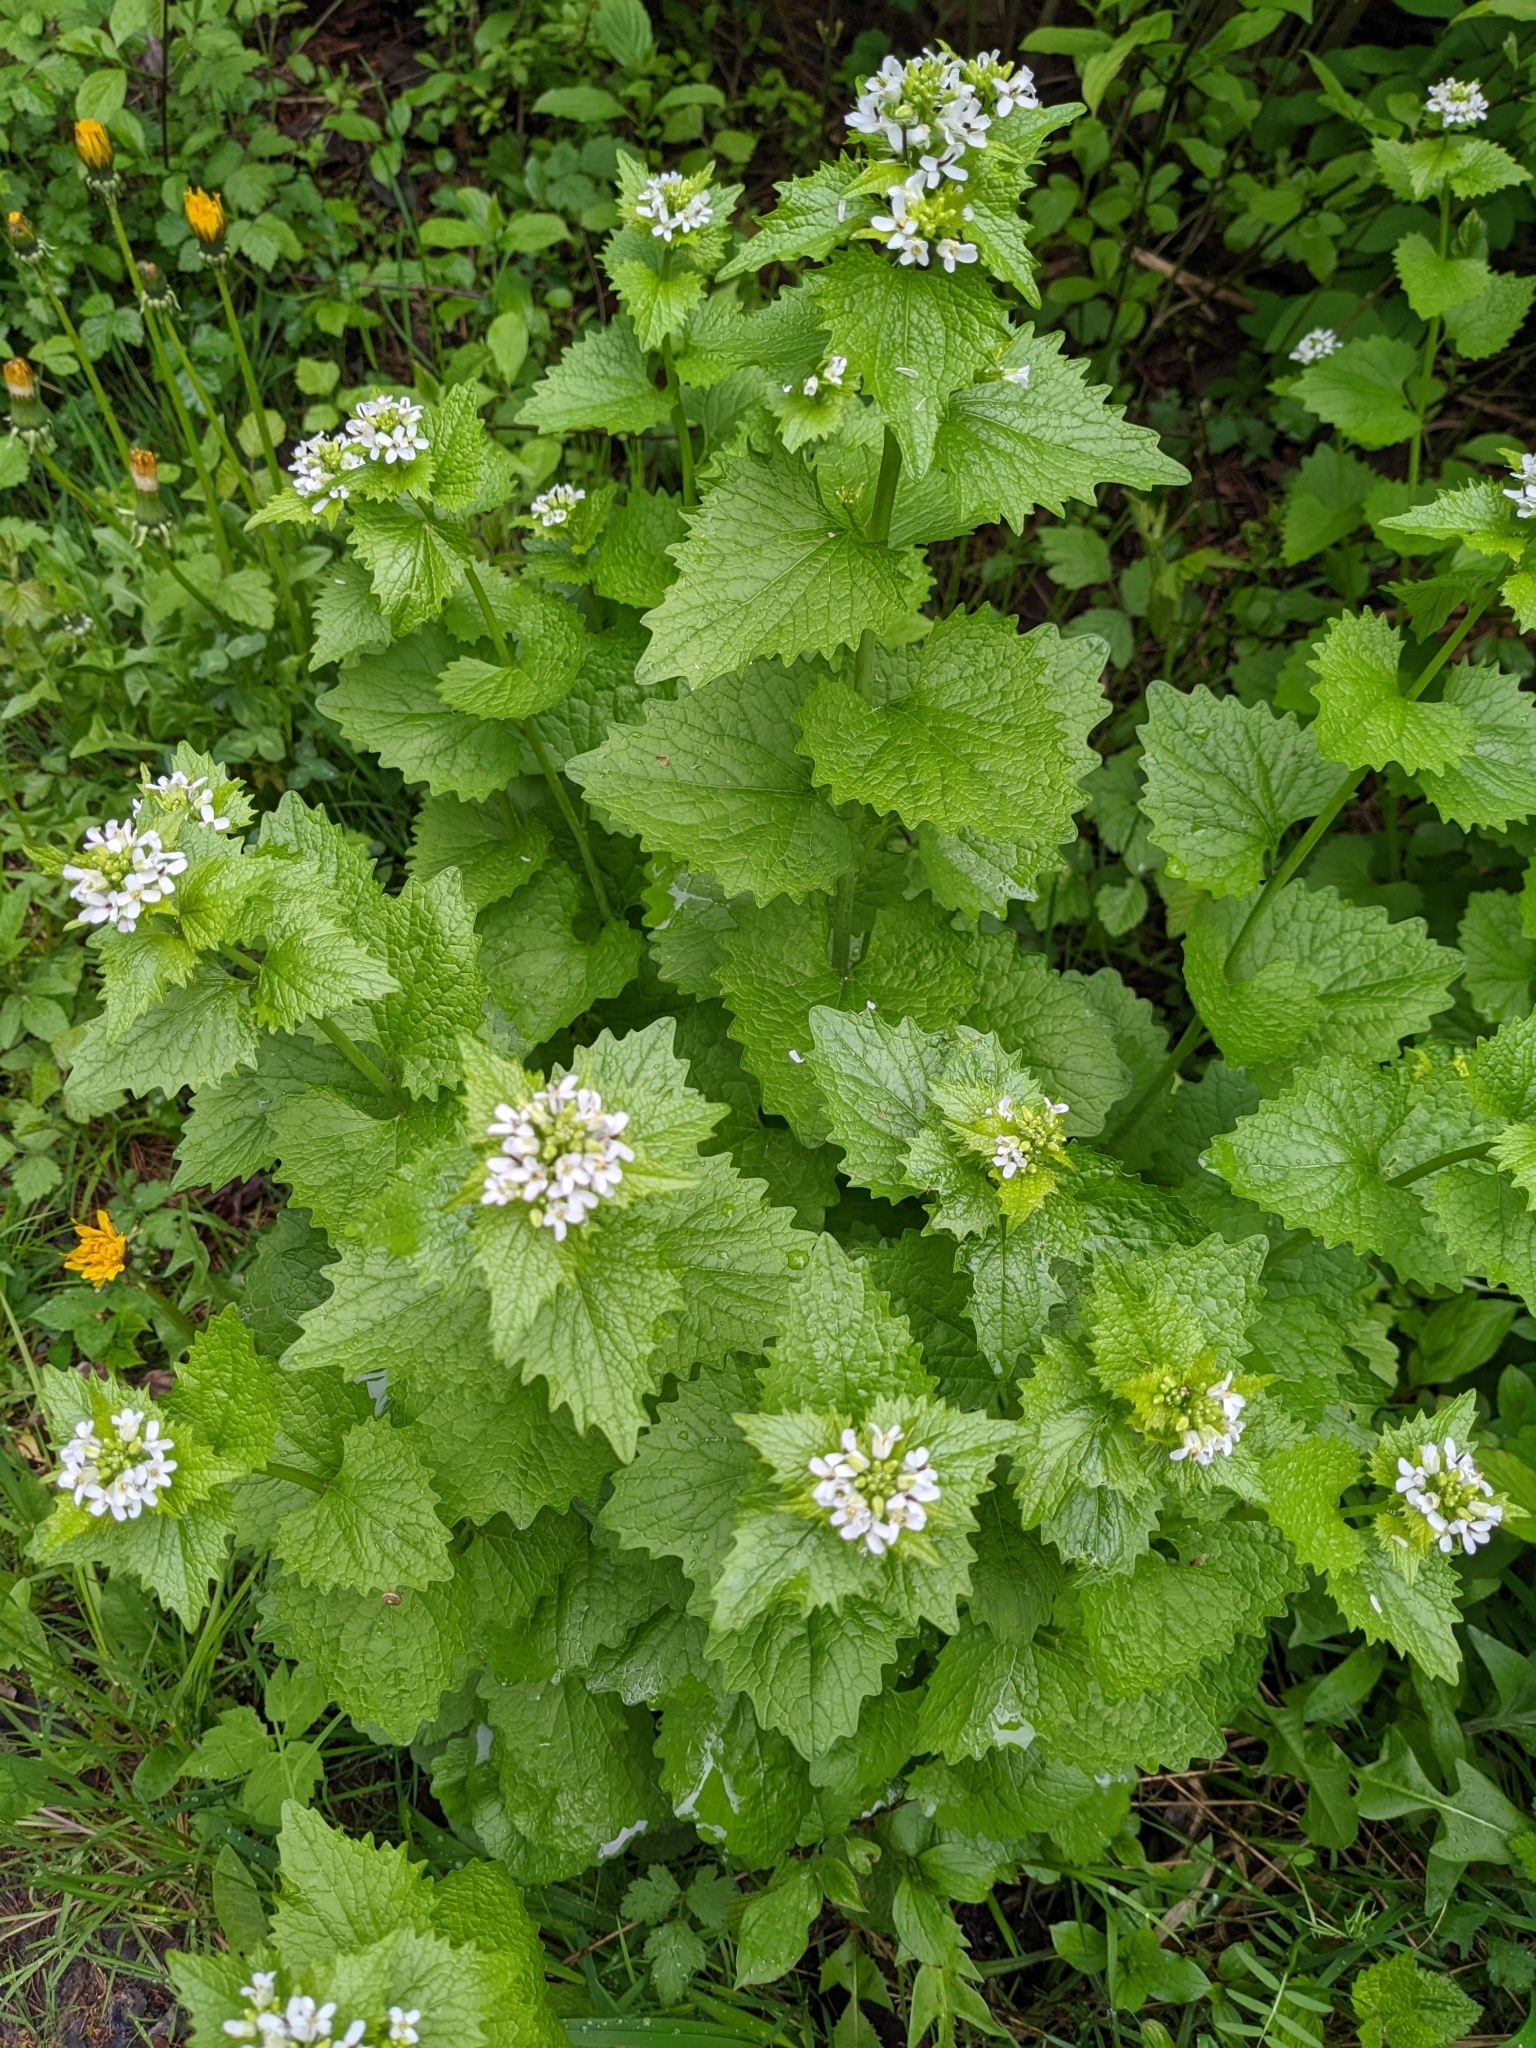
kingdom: Plantae
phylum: Tracheophyta
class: Magnoliopsida
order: Brassicales
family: Brassicaceae
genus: Alliaria
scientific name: Alliaria petiolata
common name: Garlic mustard
